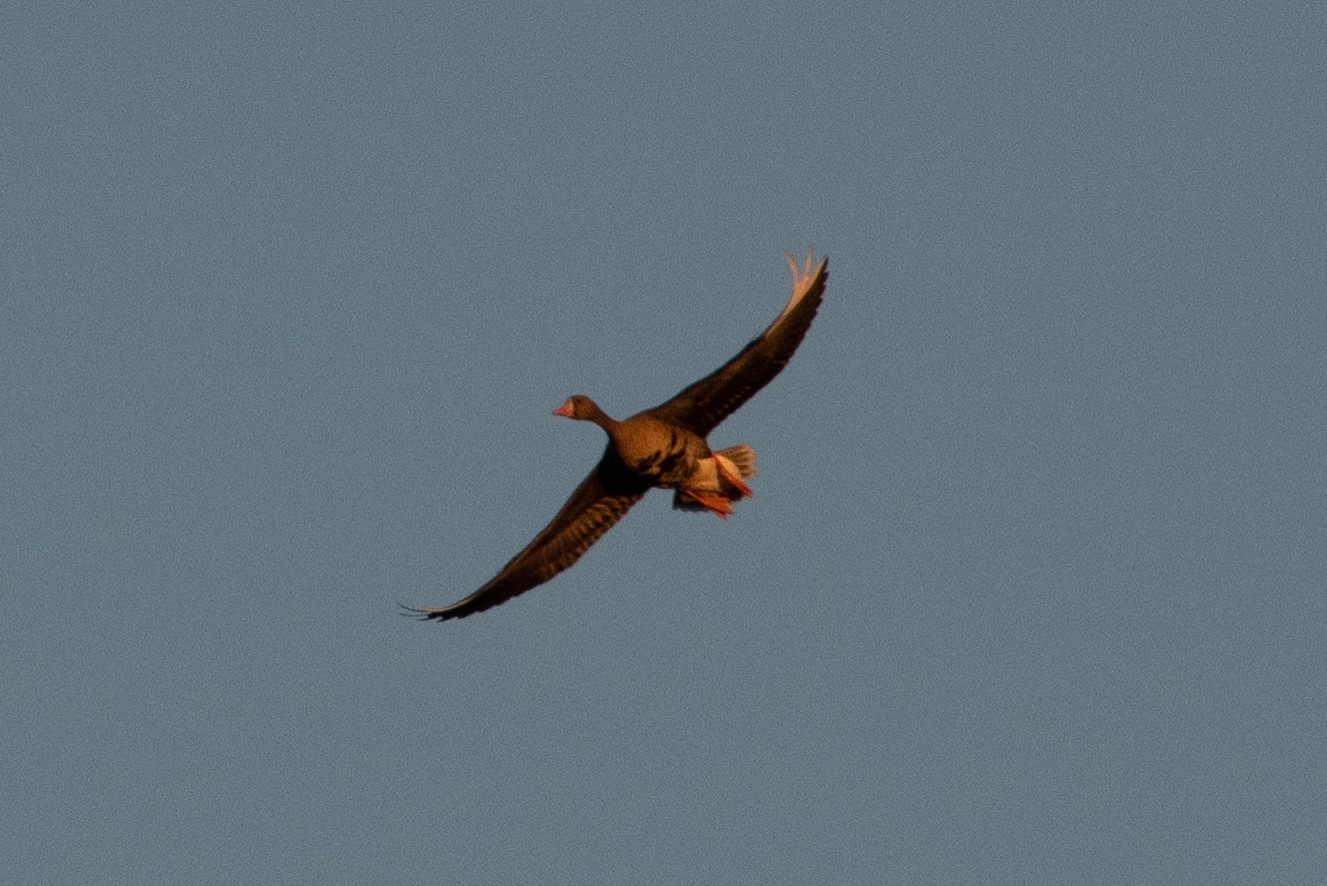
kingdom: Animalia
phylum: Chordata
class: Aves
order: Anseriformes
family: Anatidae
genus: Anser
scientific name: Anser albifrons
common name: Greater white-fronted goose
